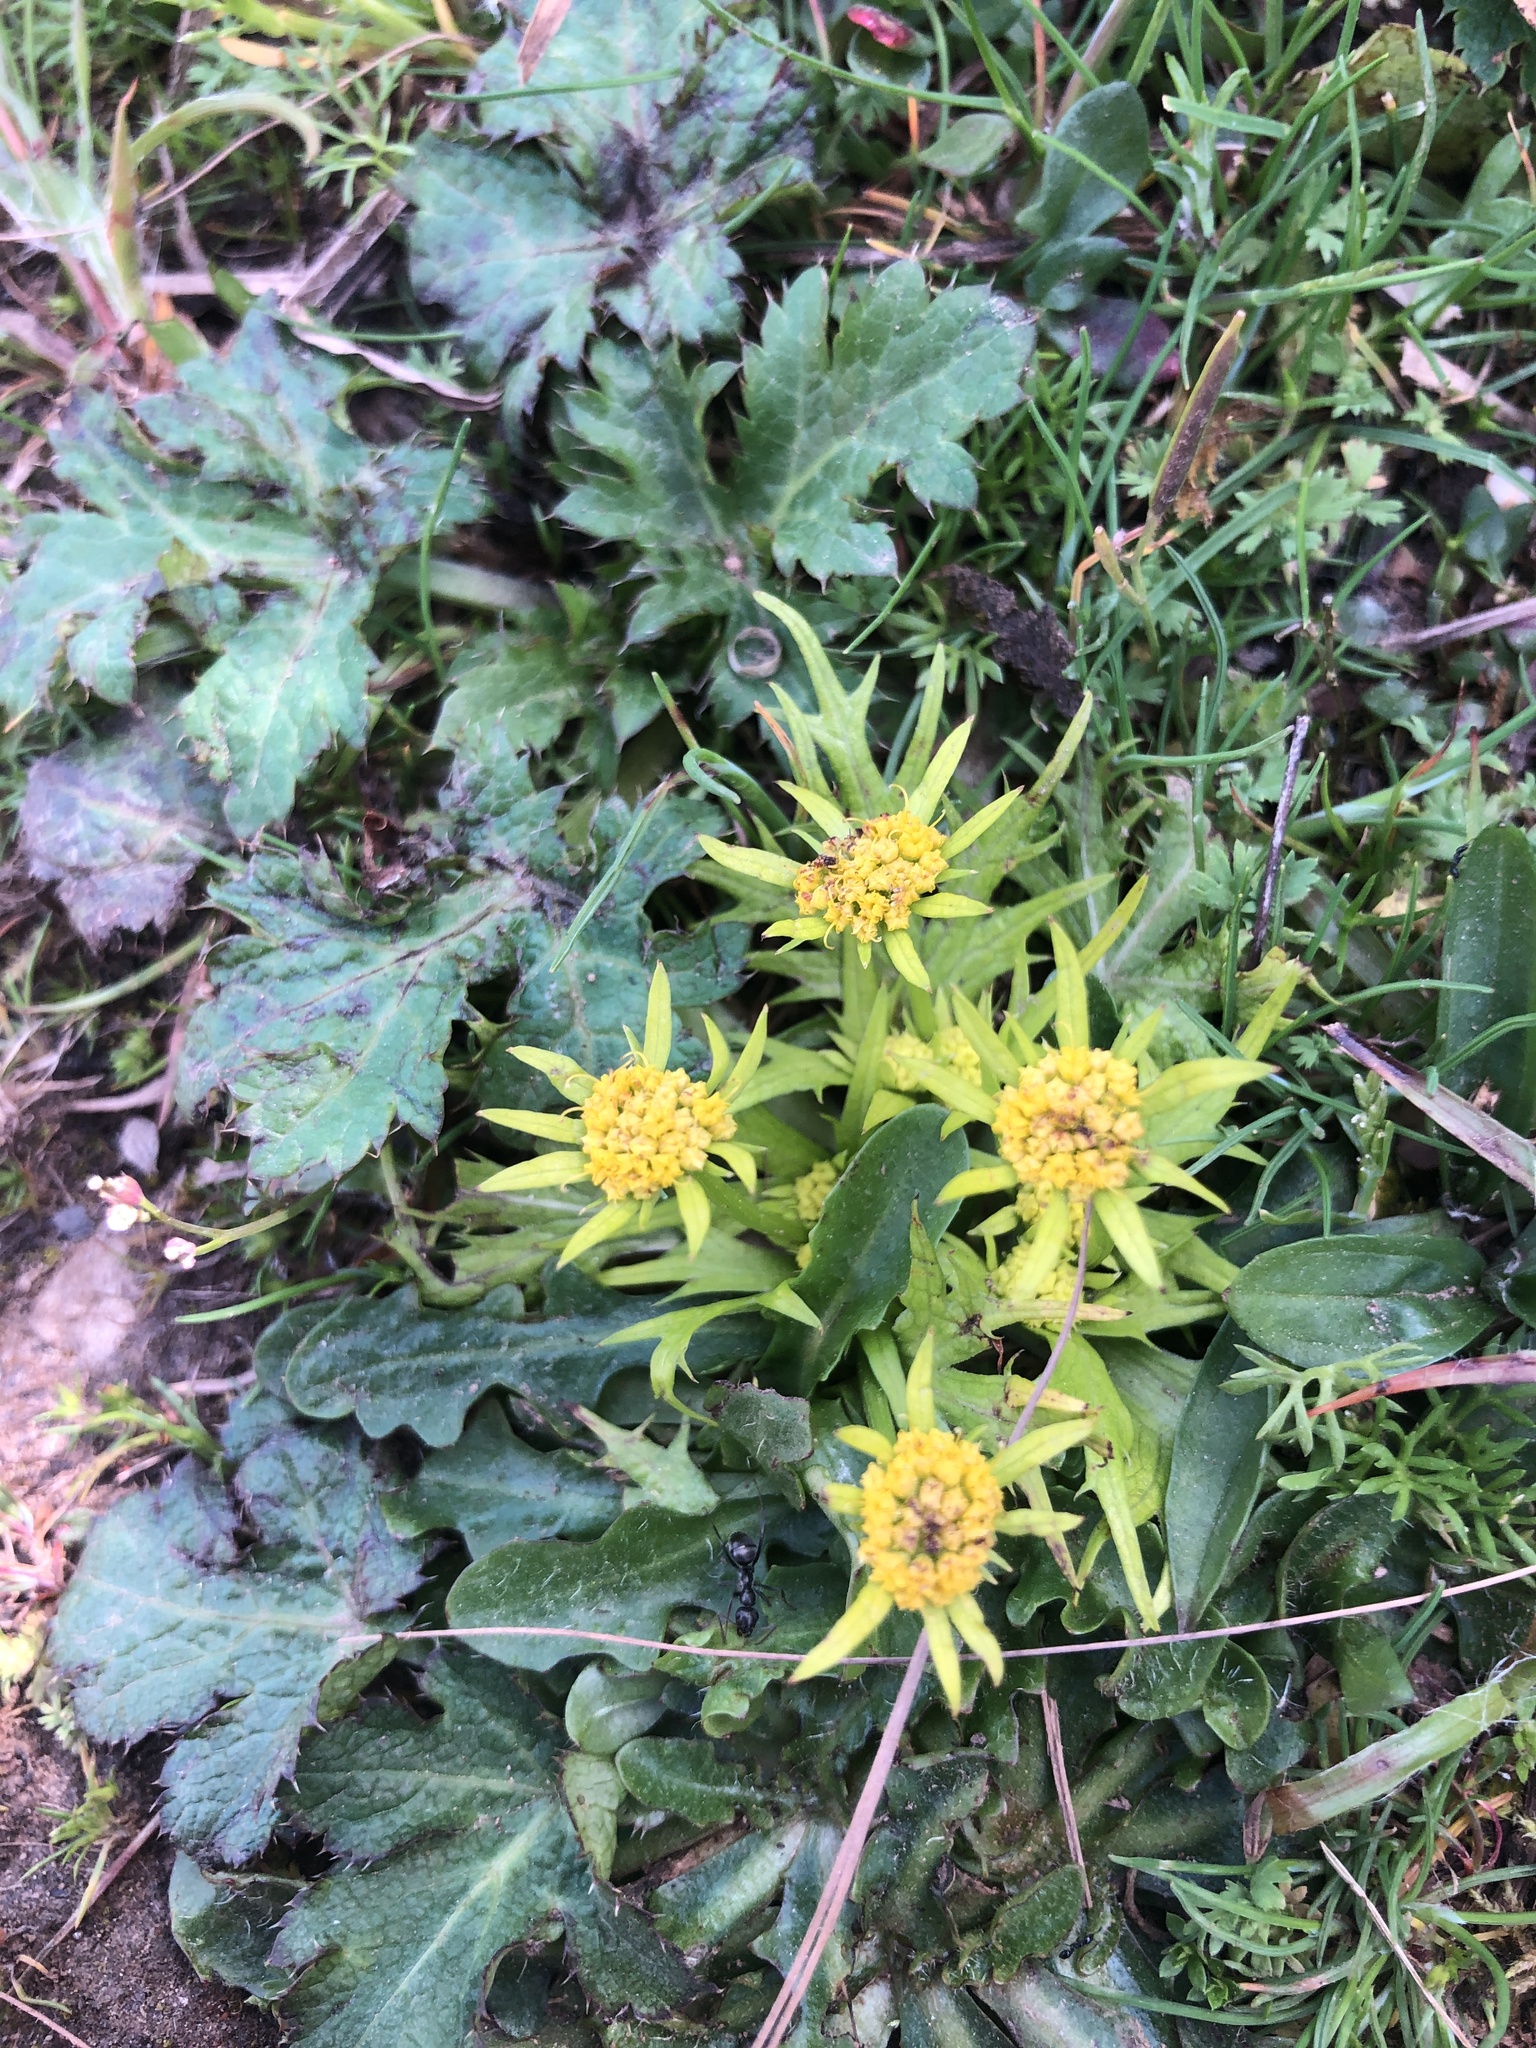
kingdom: Plantae
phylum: Tracheophyta
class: Magnoliopsida
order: Apiales
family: Apiaceae
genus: Sanicula
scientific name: Sanicula arctopoides
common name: Footsteps-of-spring
